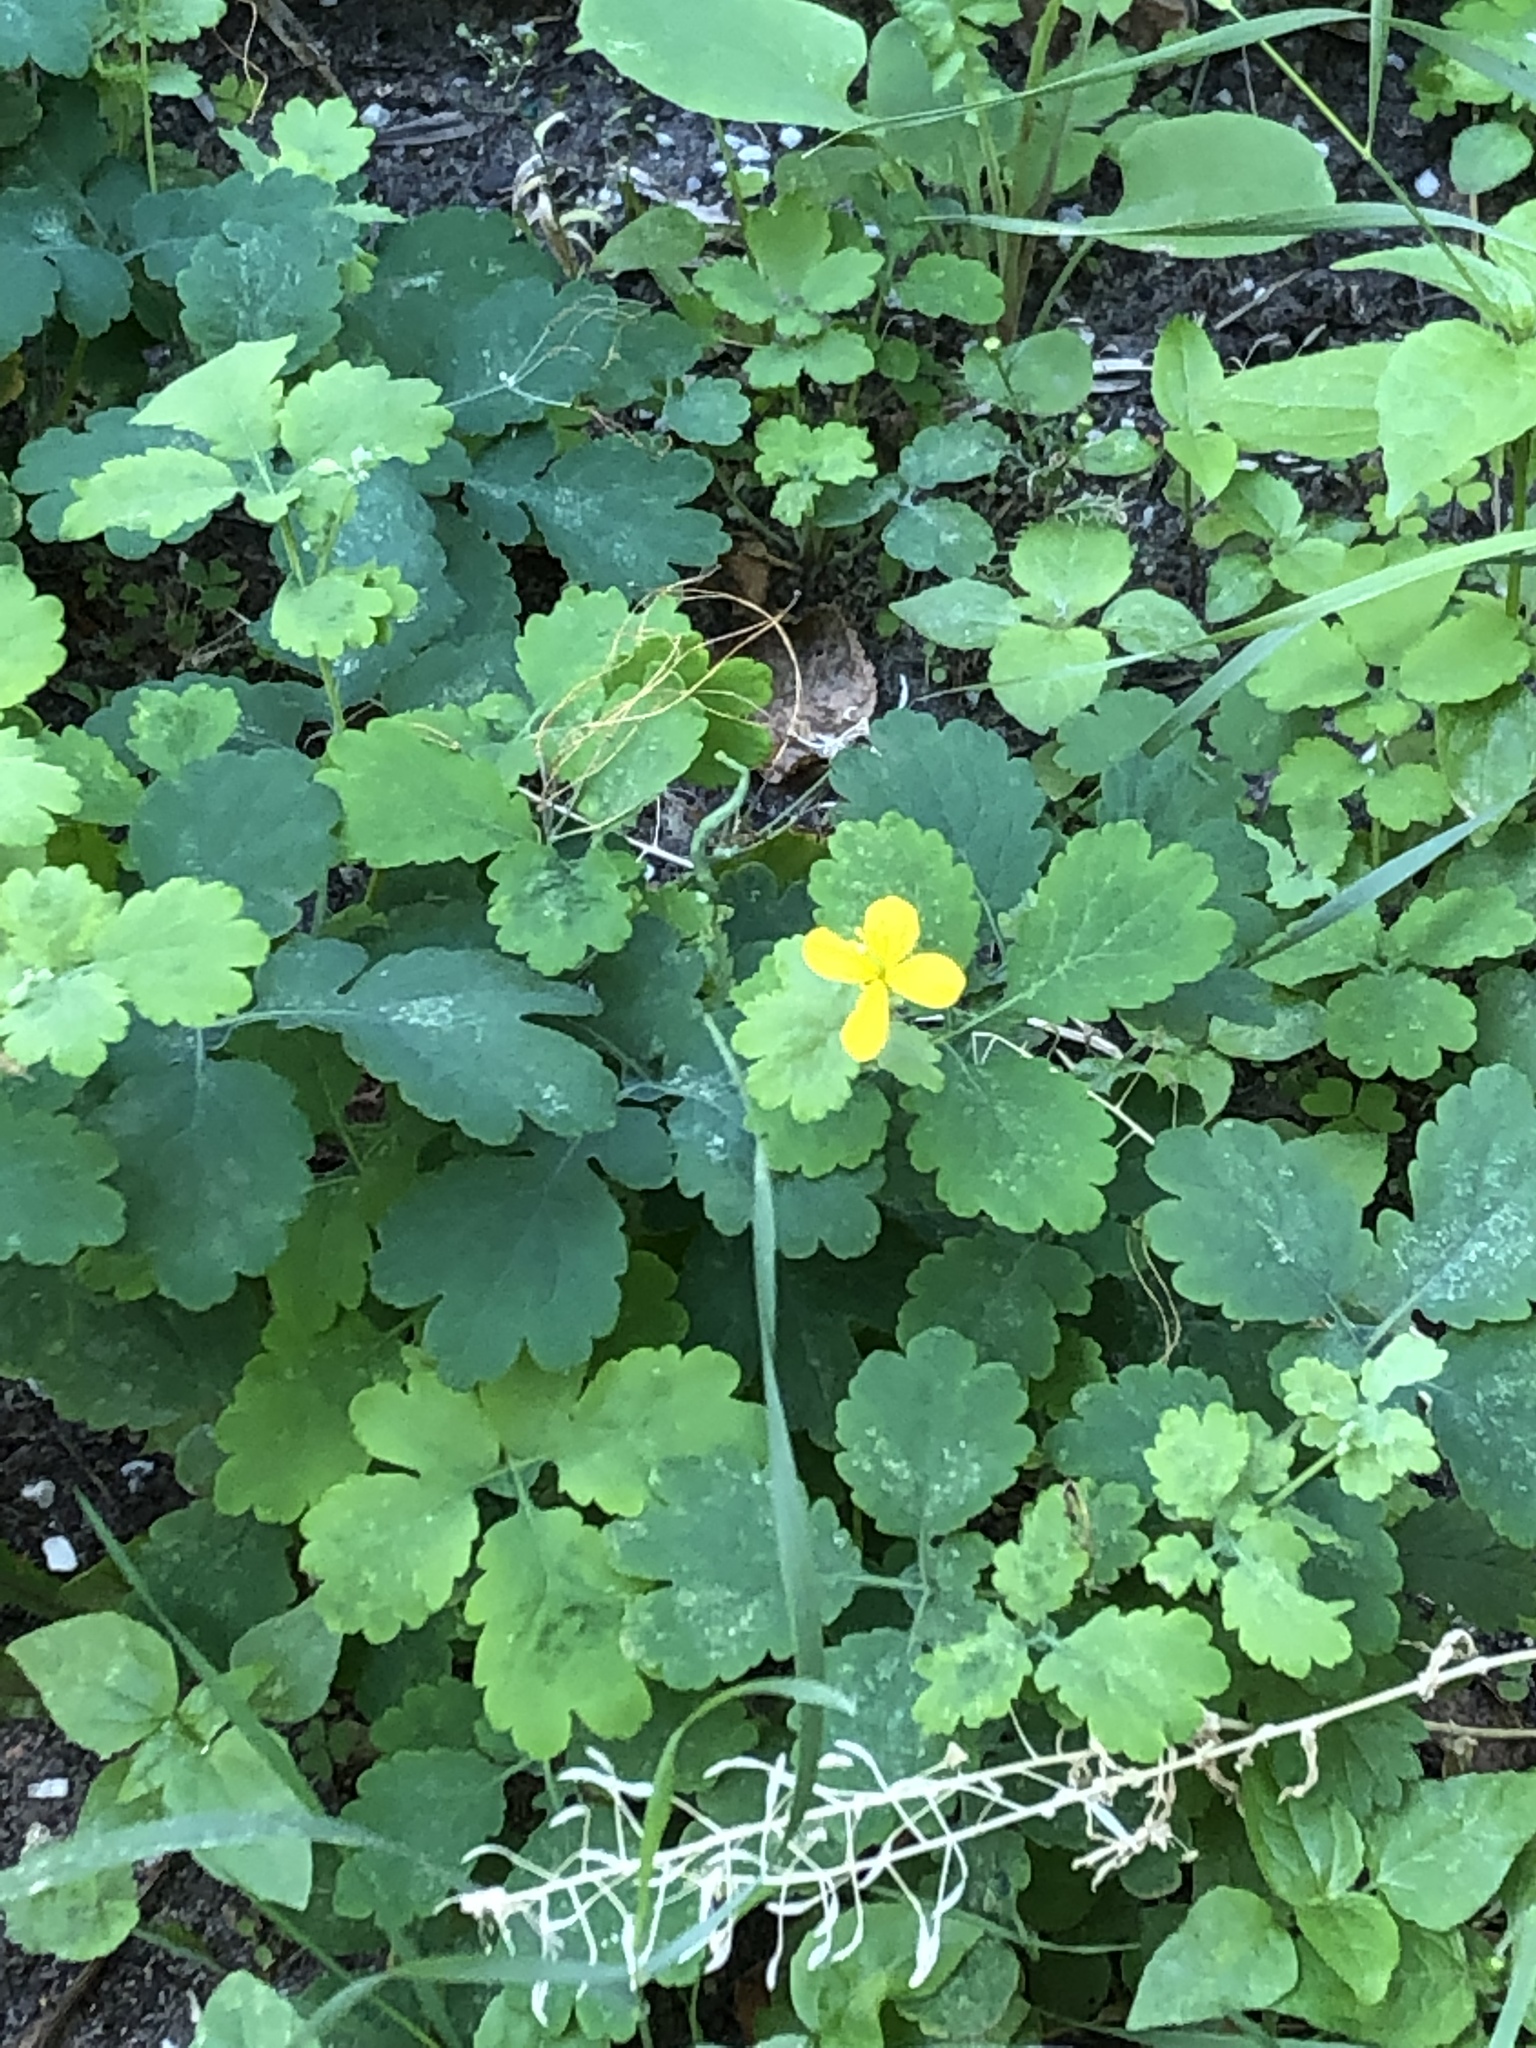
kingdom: Plantae
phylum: Tracheophyta
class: Magnoliopsida
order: Ranunculales
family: Papaveraceae
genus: Chelidonium
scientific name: Chelidonium majus
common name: Greater celandine
